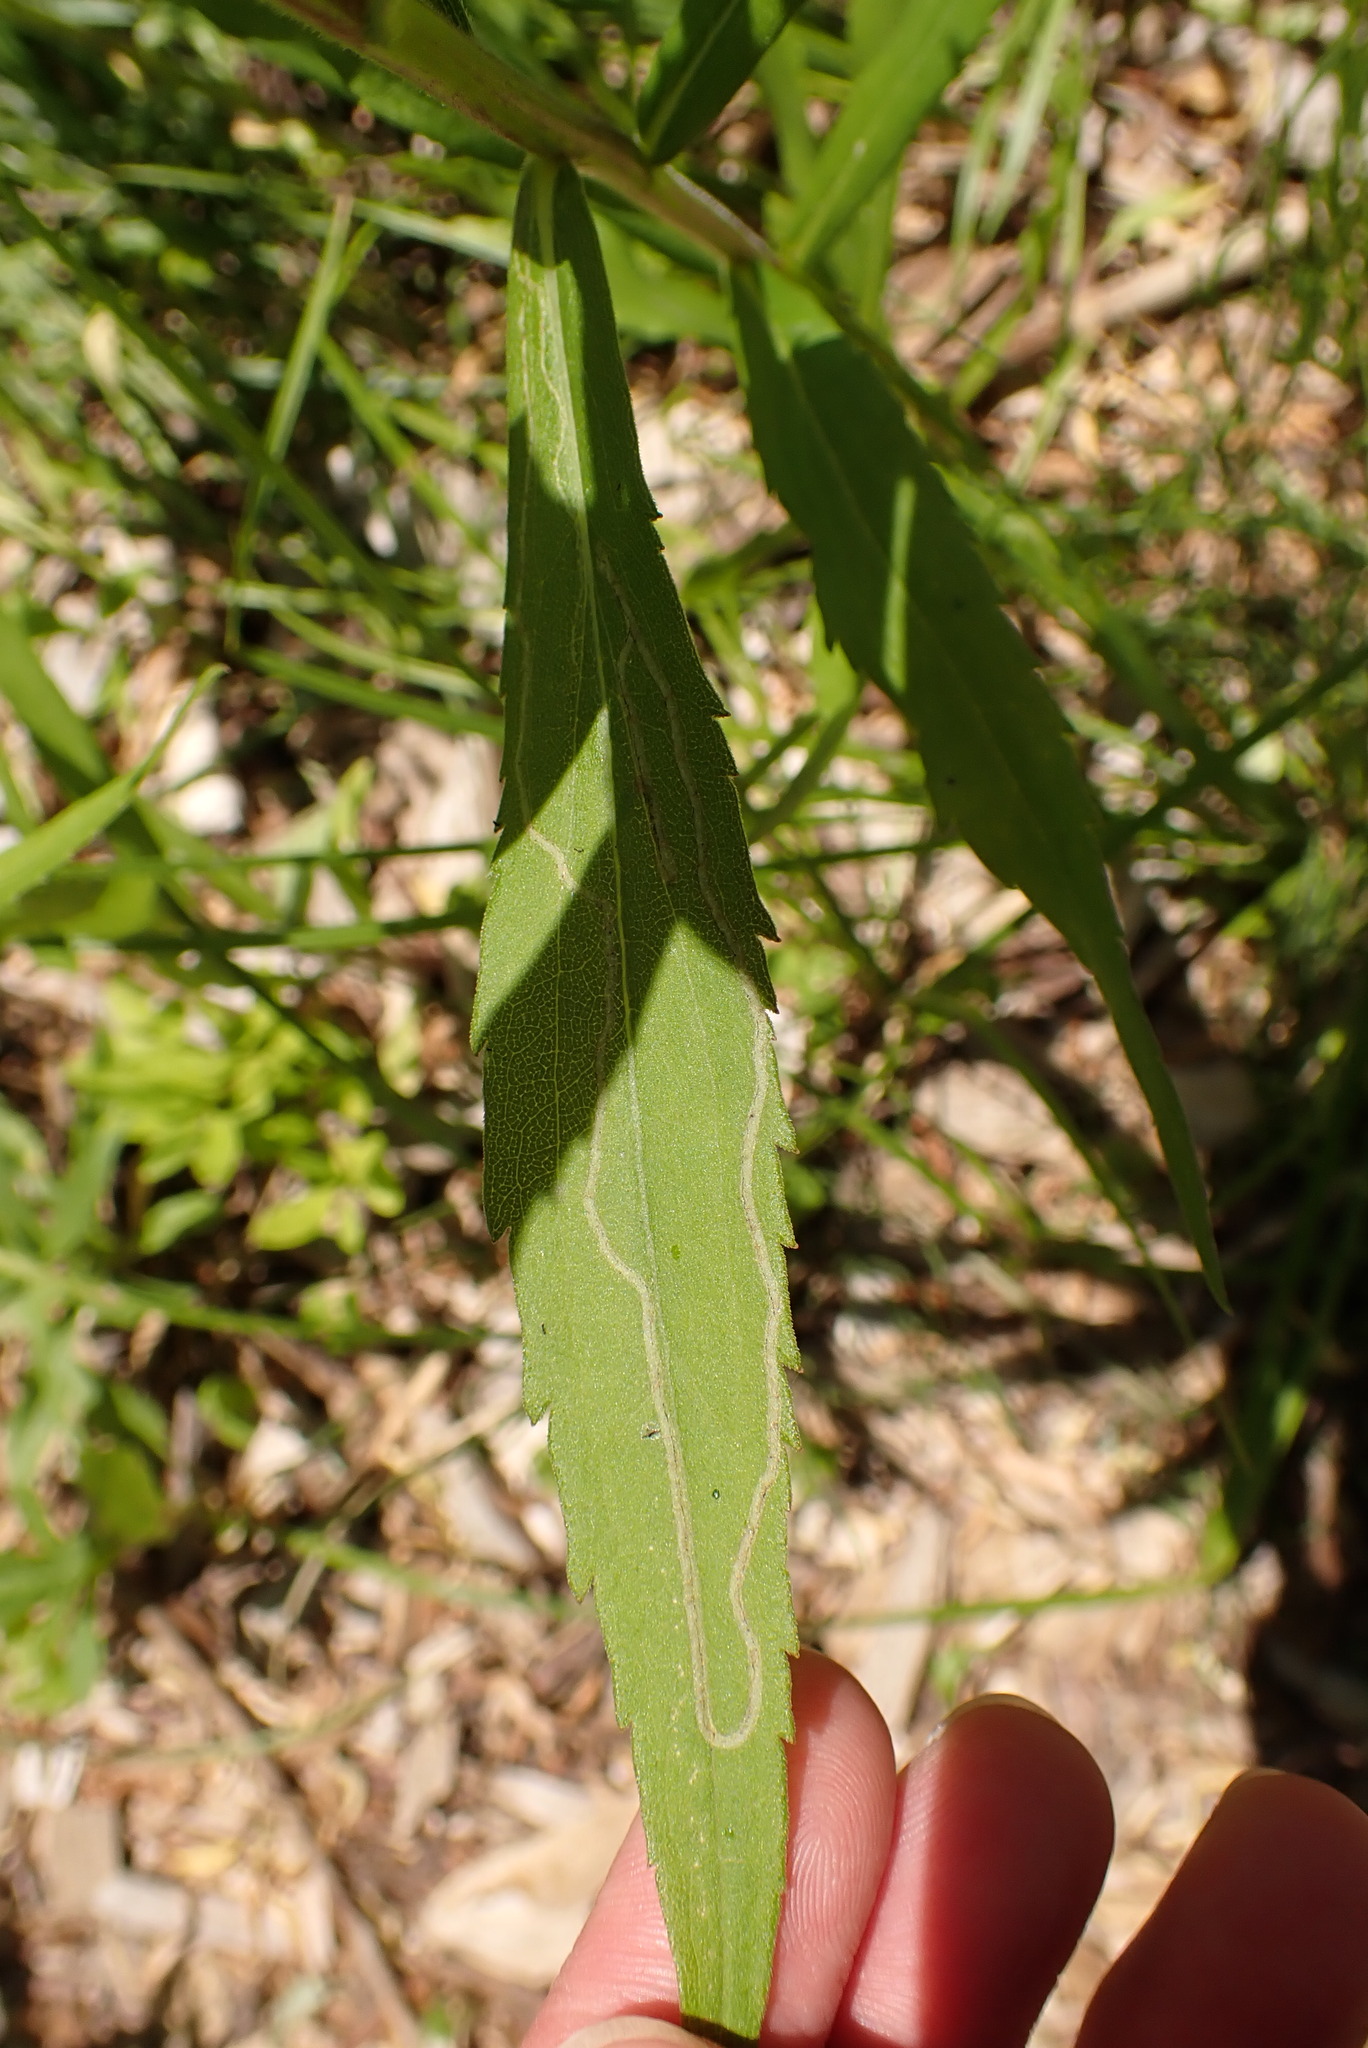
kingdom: Animalia
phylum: Arthropoda
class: Insecta
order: Diptera
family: Agromyzidae
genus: Ophiomyia
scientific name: Ophiomyia maura
